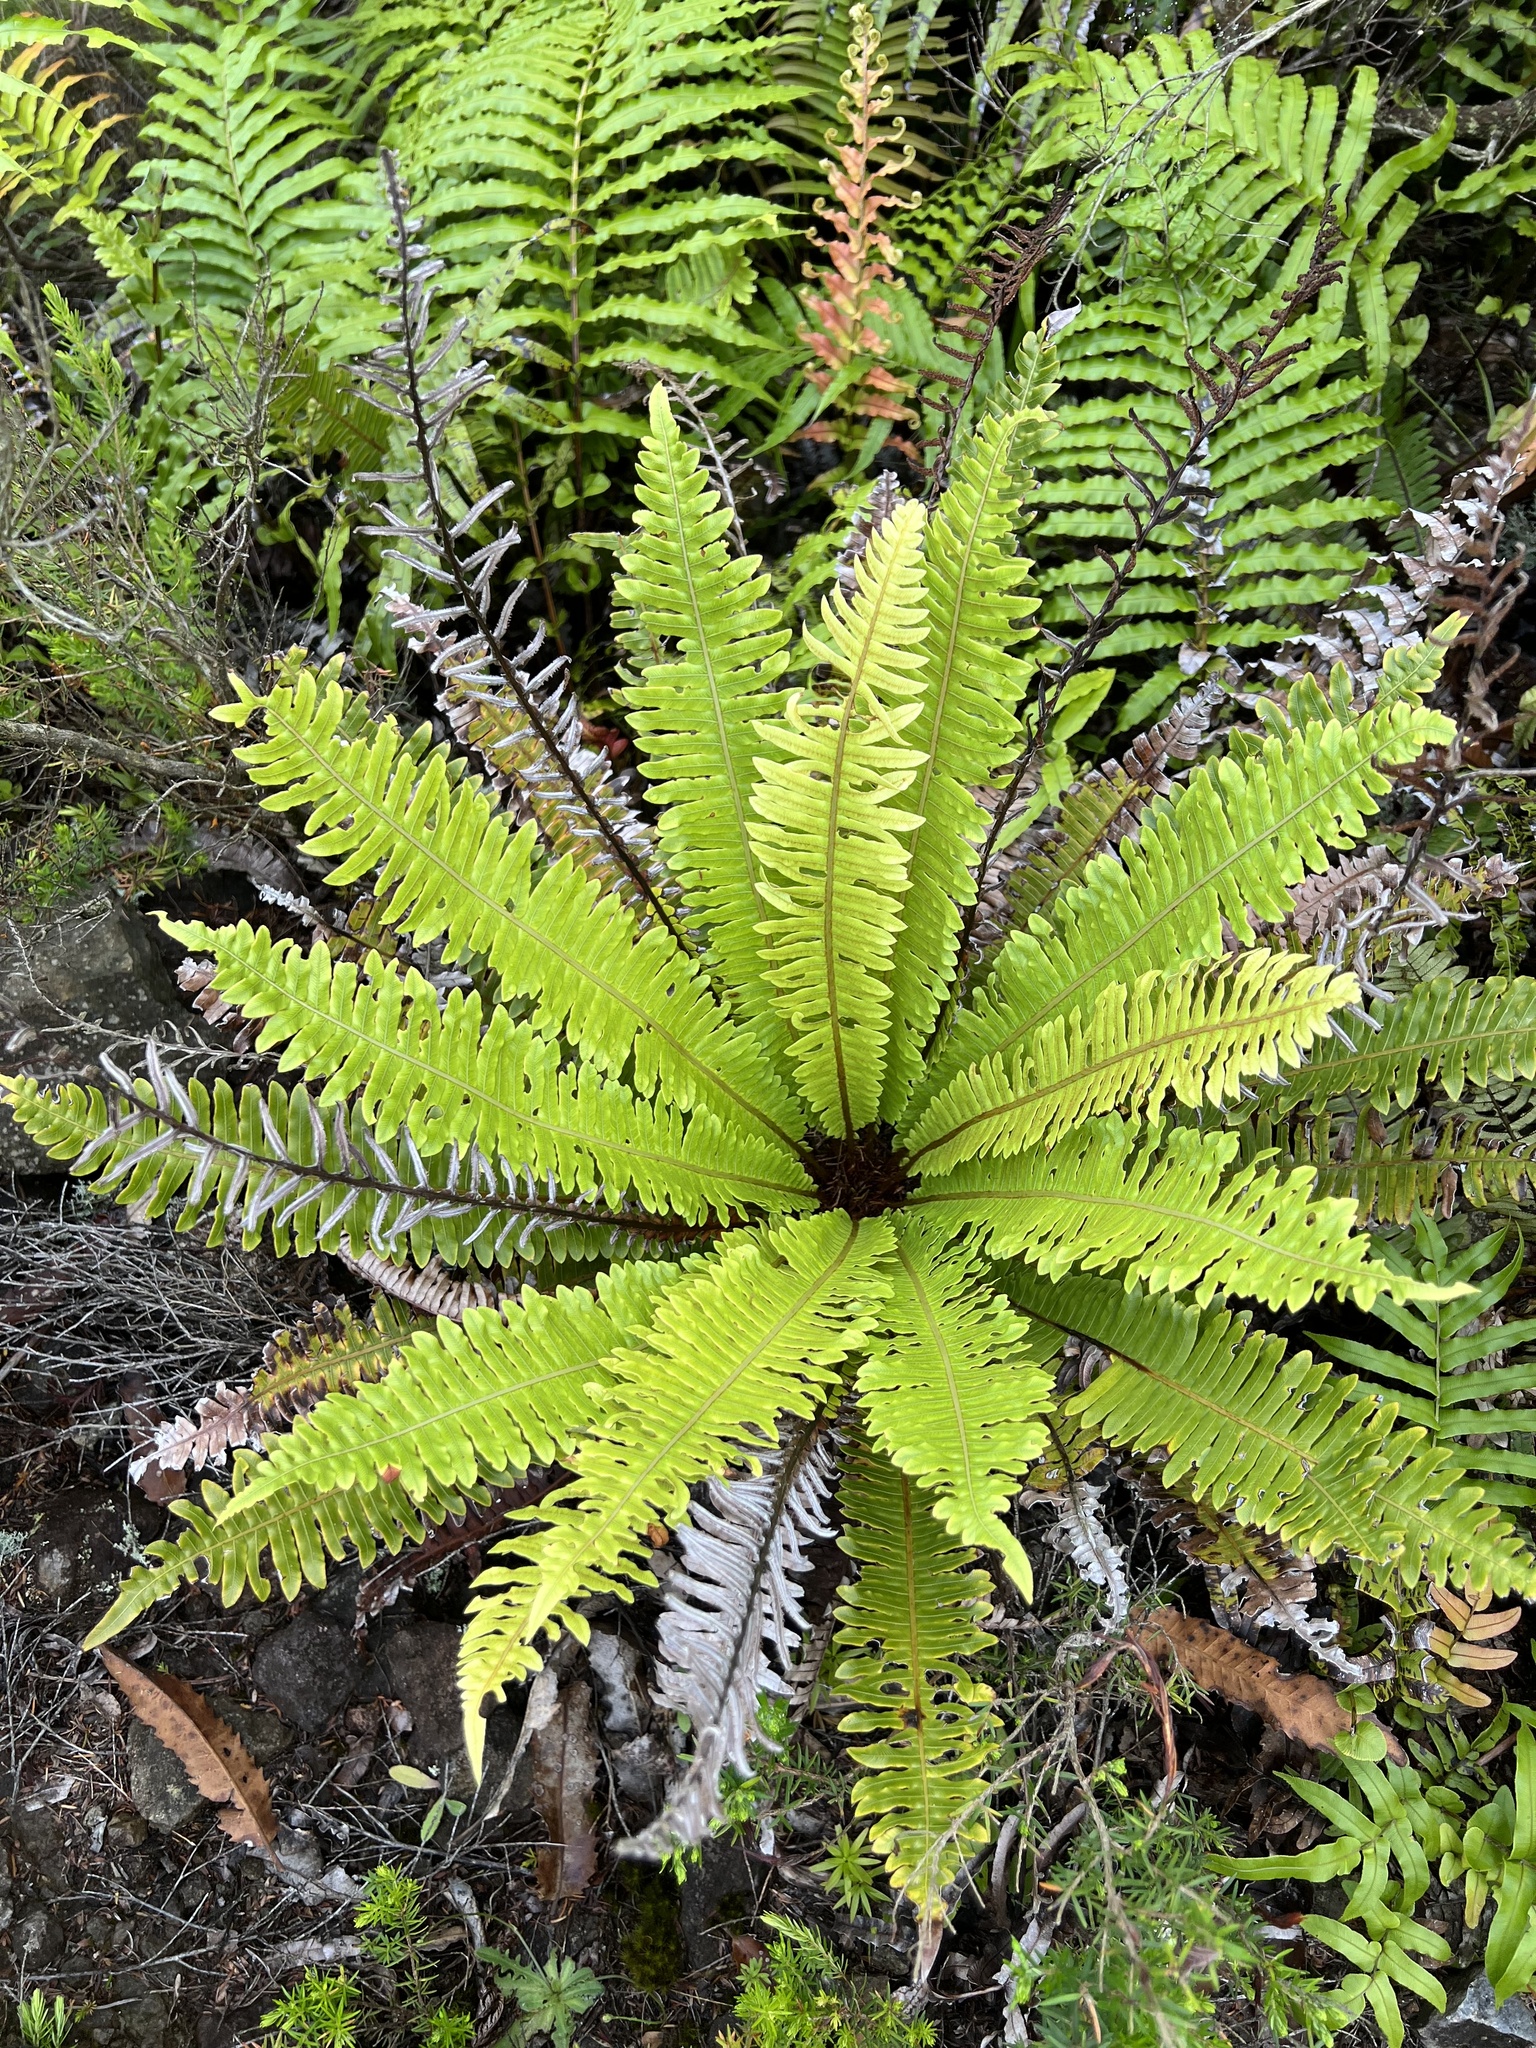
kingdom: Plantae
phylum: Tracheophyta
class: Polypodiopsida
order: Polypodiales
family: Blechnaceae
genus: Lomaria
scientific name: Lomaria discolor
